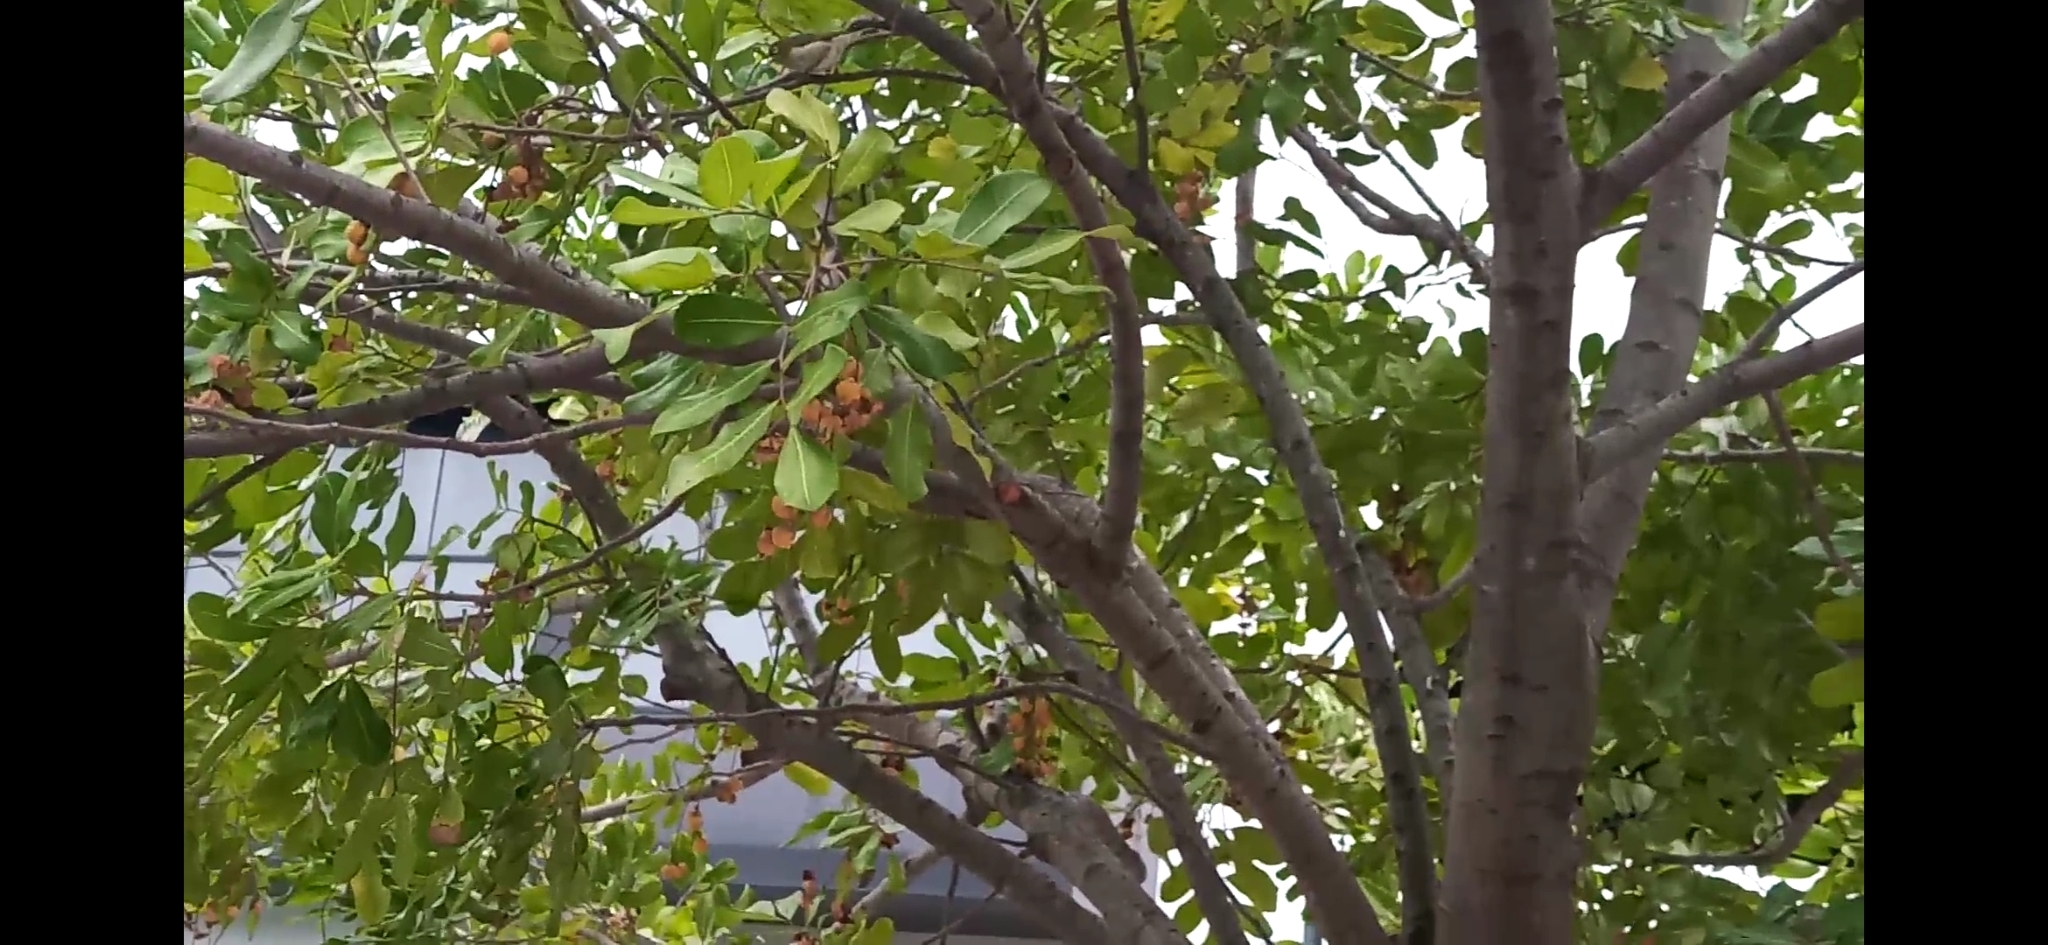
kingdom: Animalia
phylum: Chordata
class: Aves
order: Passeriformes
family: Zosteropidae
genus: Zosterops
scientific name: Zosterops lateralis
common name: Silvereye
